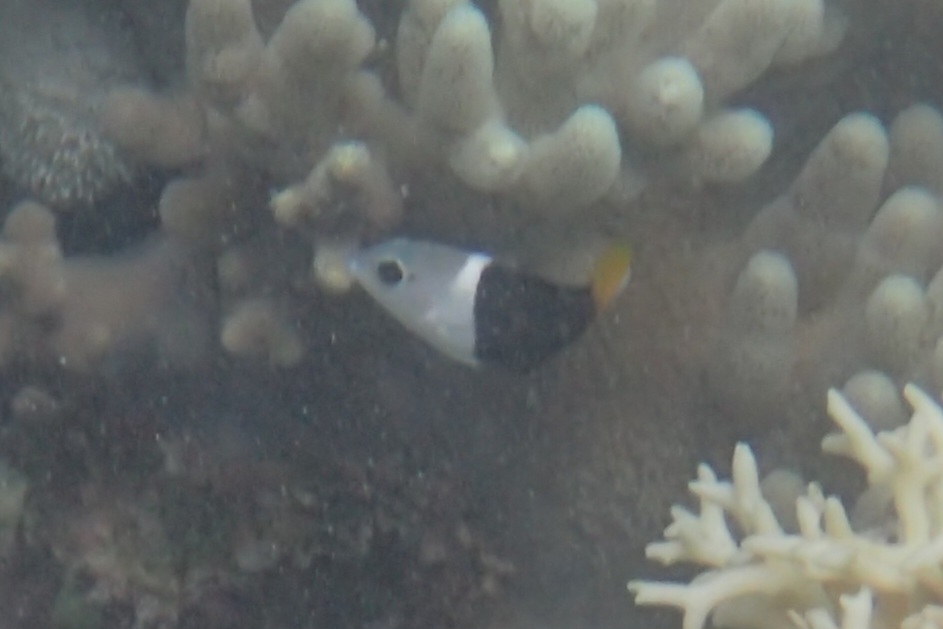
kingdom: Animalia
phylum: Chordata
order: Perciformes
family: Labridae
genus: Hemigymnus
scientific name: Hemigymnus melapterus
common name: Blackeye thicklip
